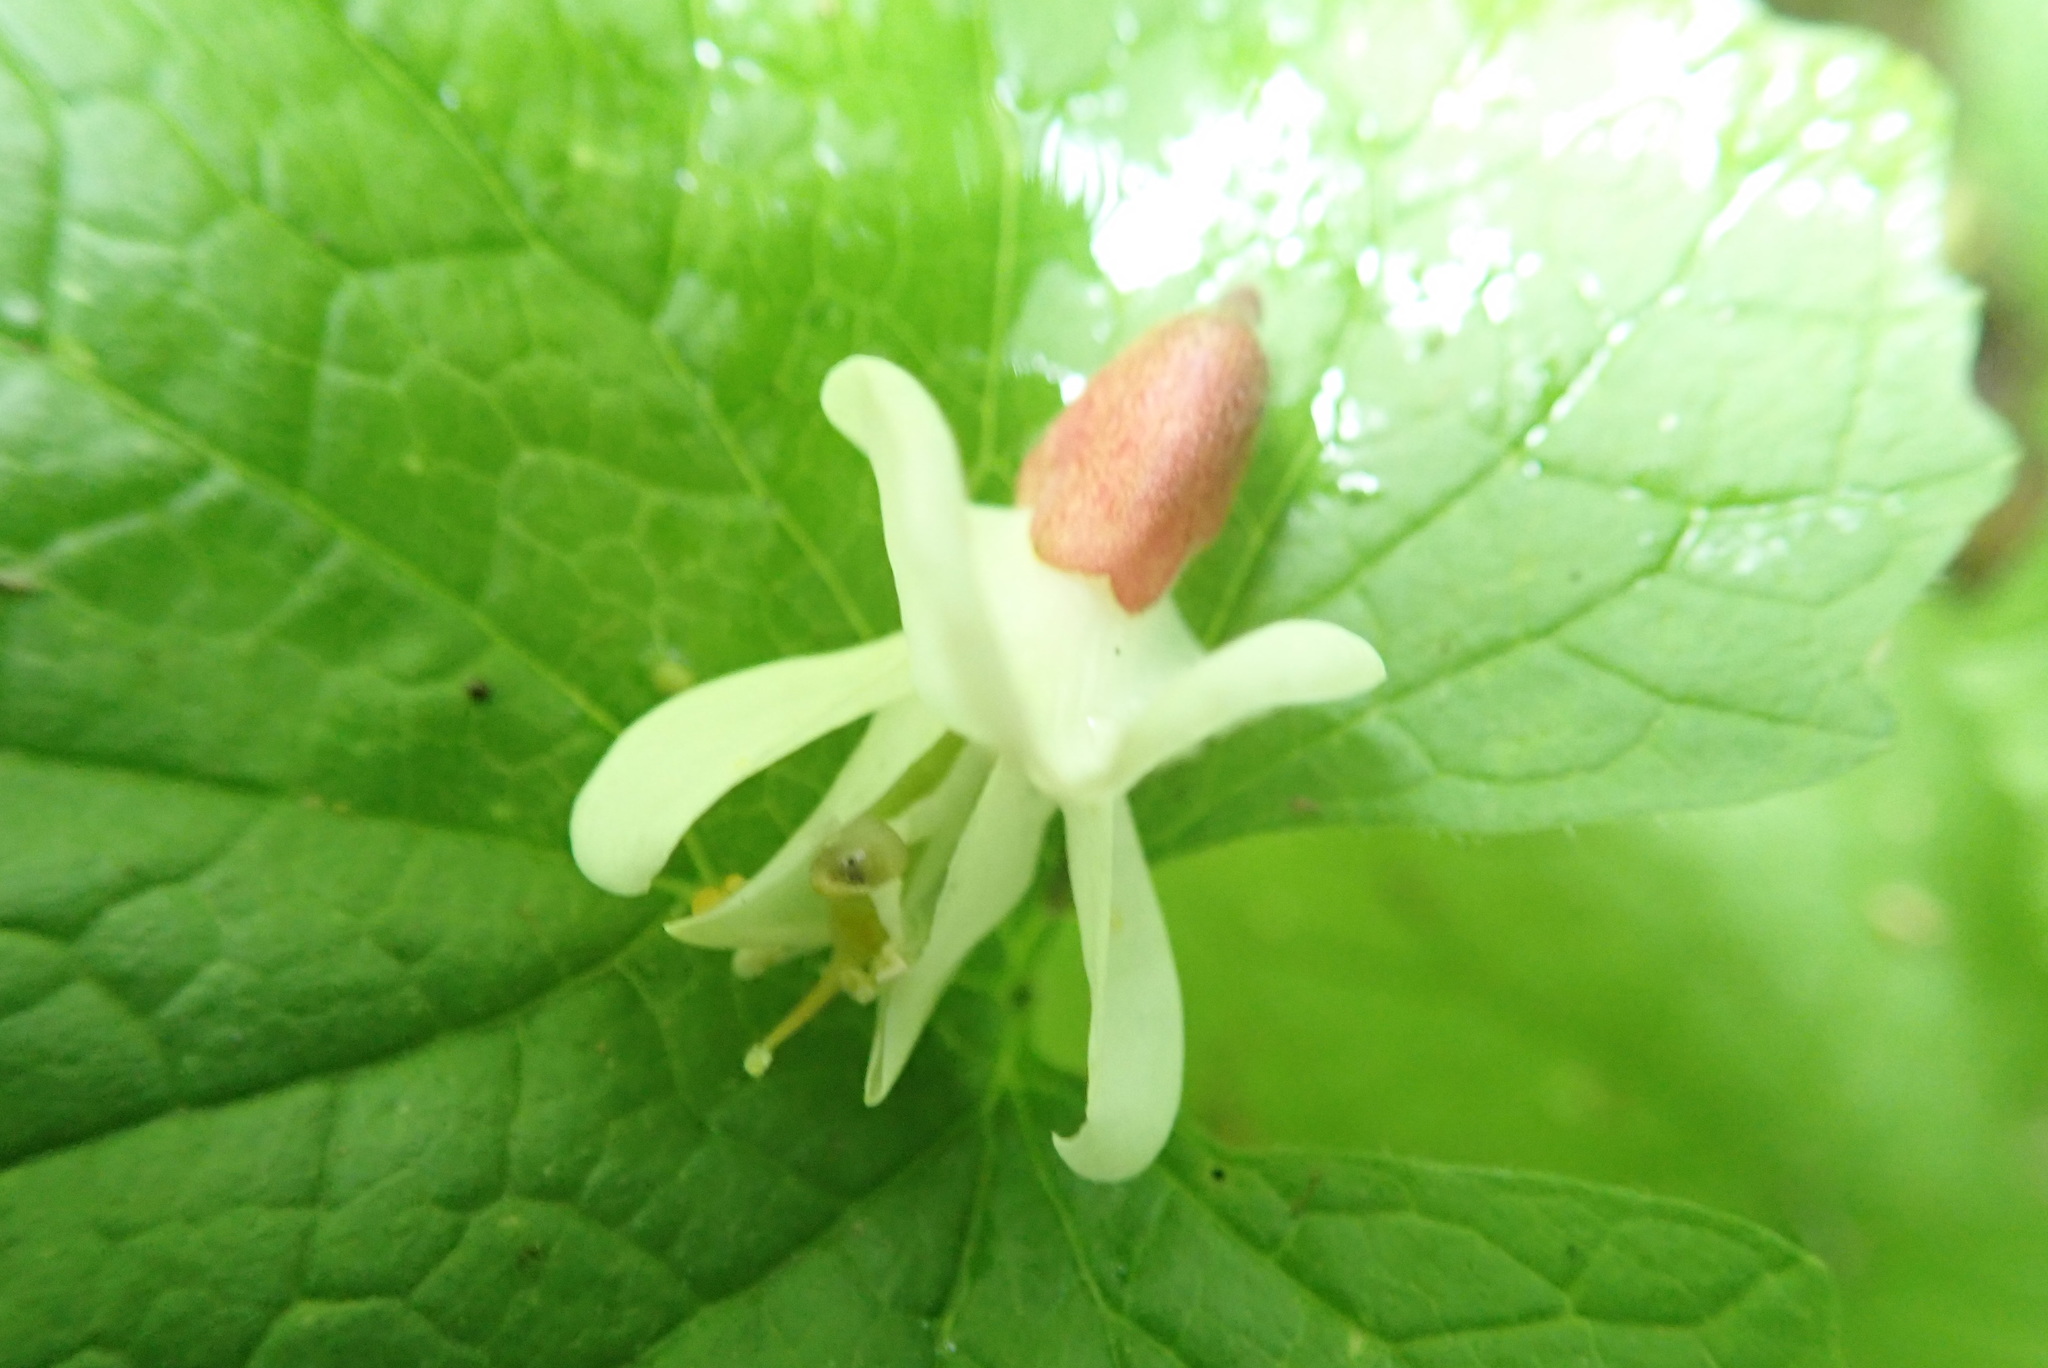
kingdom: Plantae
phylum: Tracheophyta
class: Magnoliopsida
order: Fabales
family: Fabaceae
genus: Robinia
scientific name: Robinia pseudoacacia
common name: Black locust
